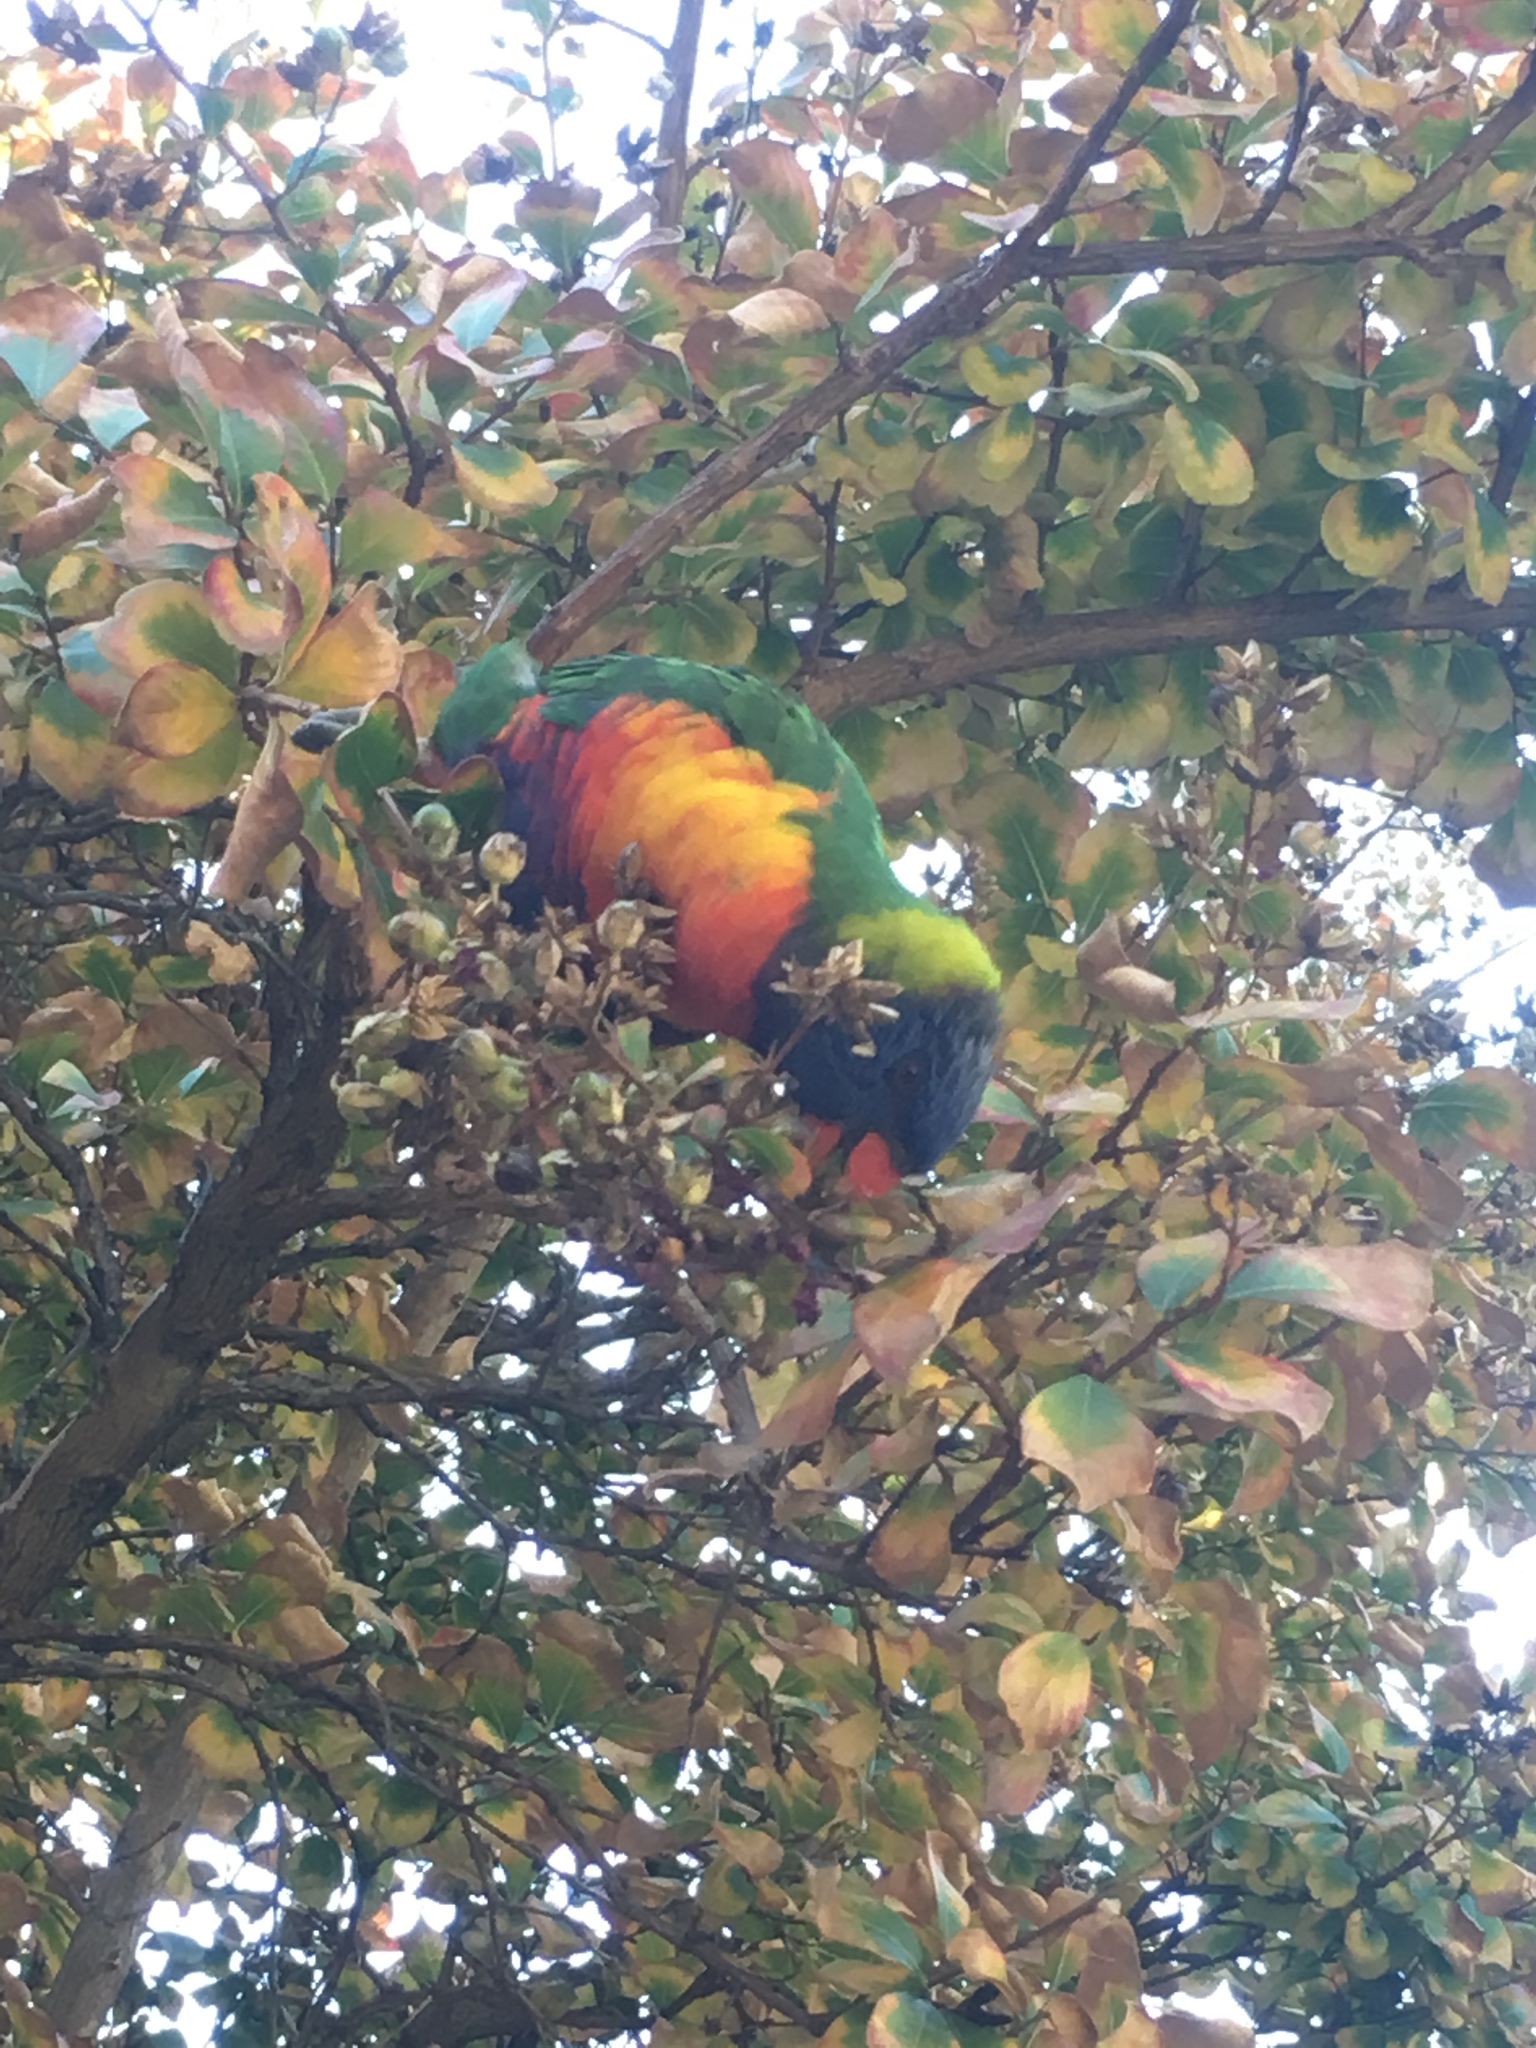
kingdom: Animalia
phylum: Chordata
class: Aves
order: Psittaciformes
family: Psittacidae
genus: Trichoglossus
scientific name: Trichoglossus haematodus
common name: Coconut lorikeet
